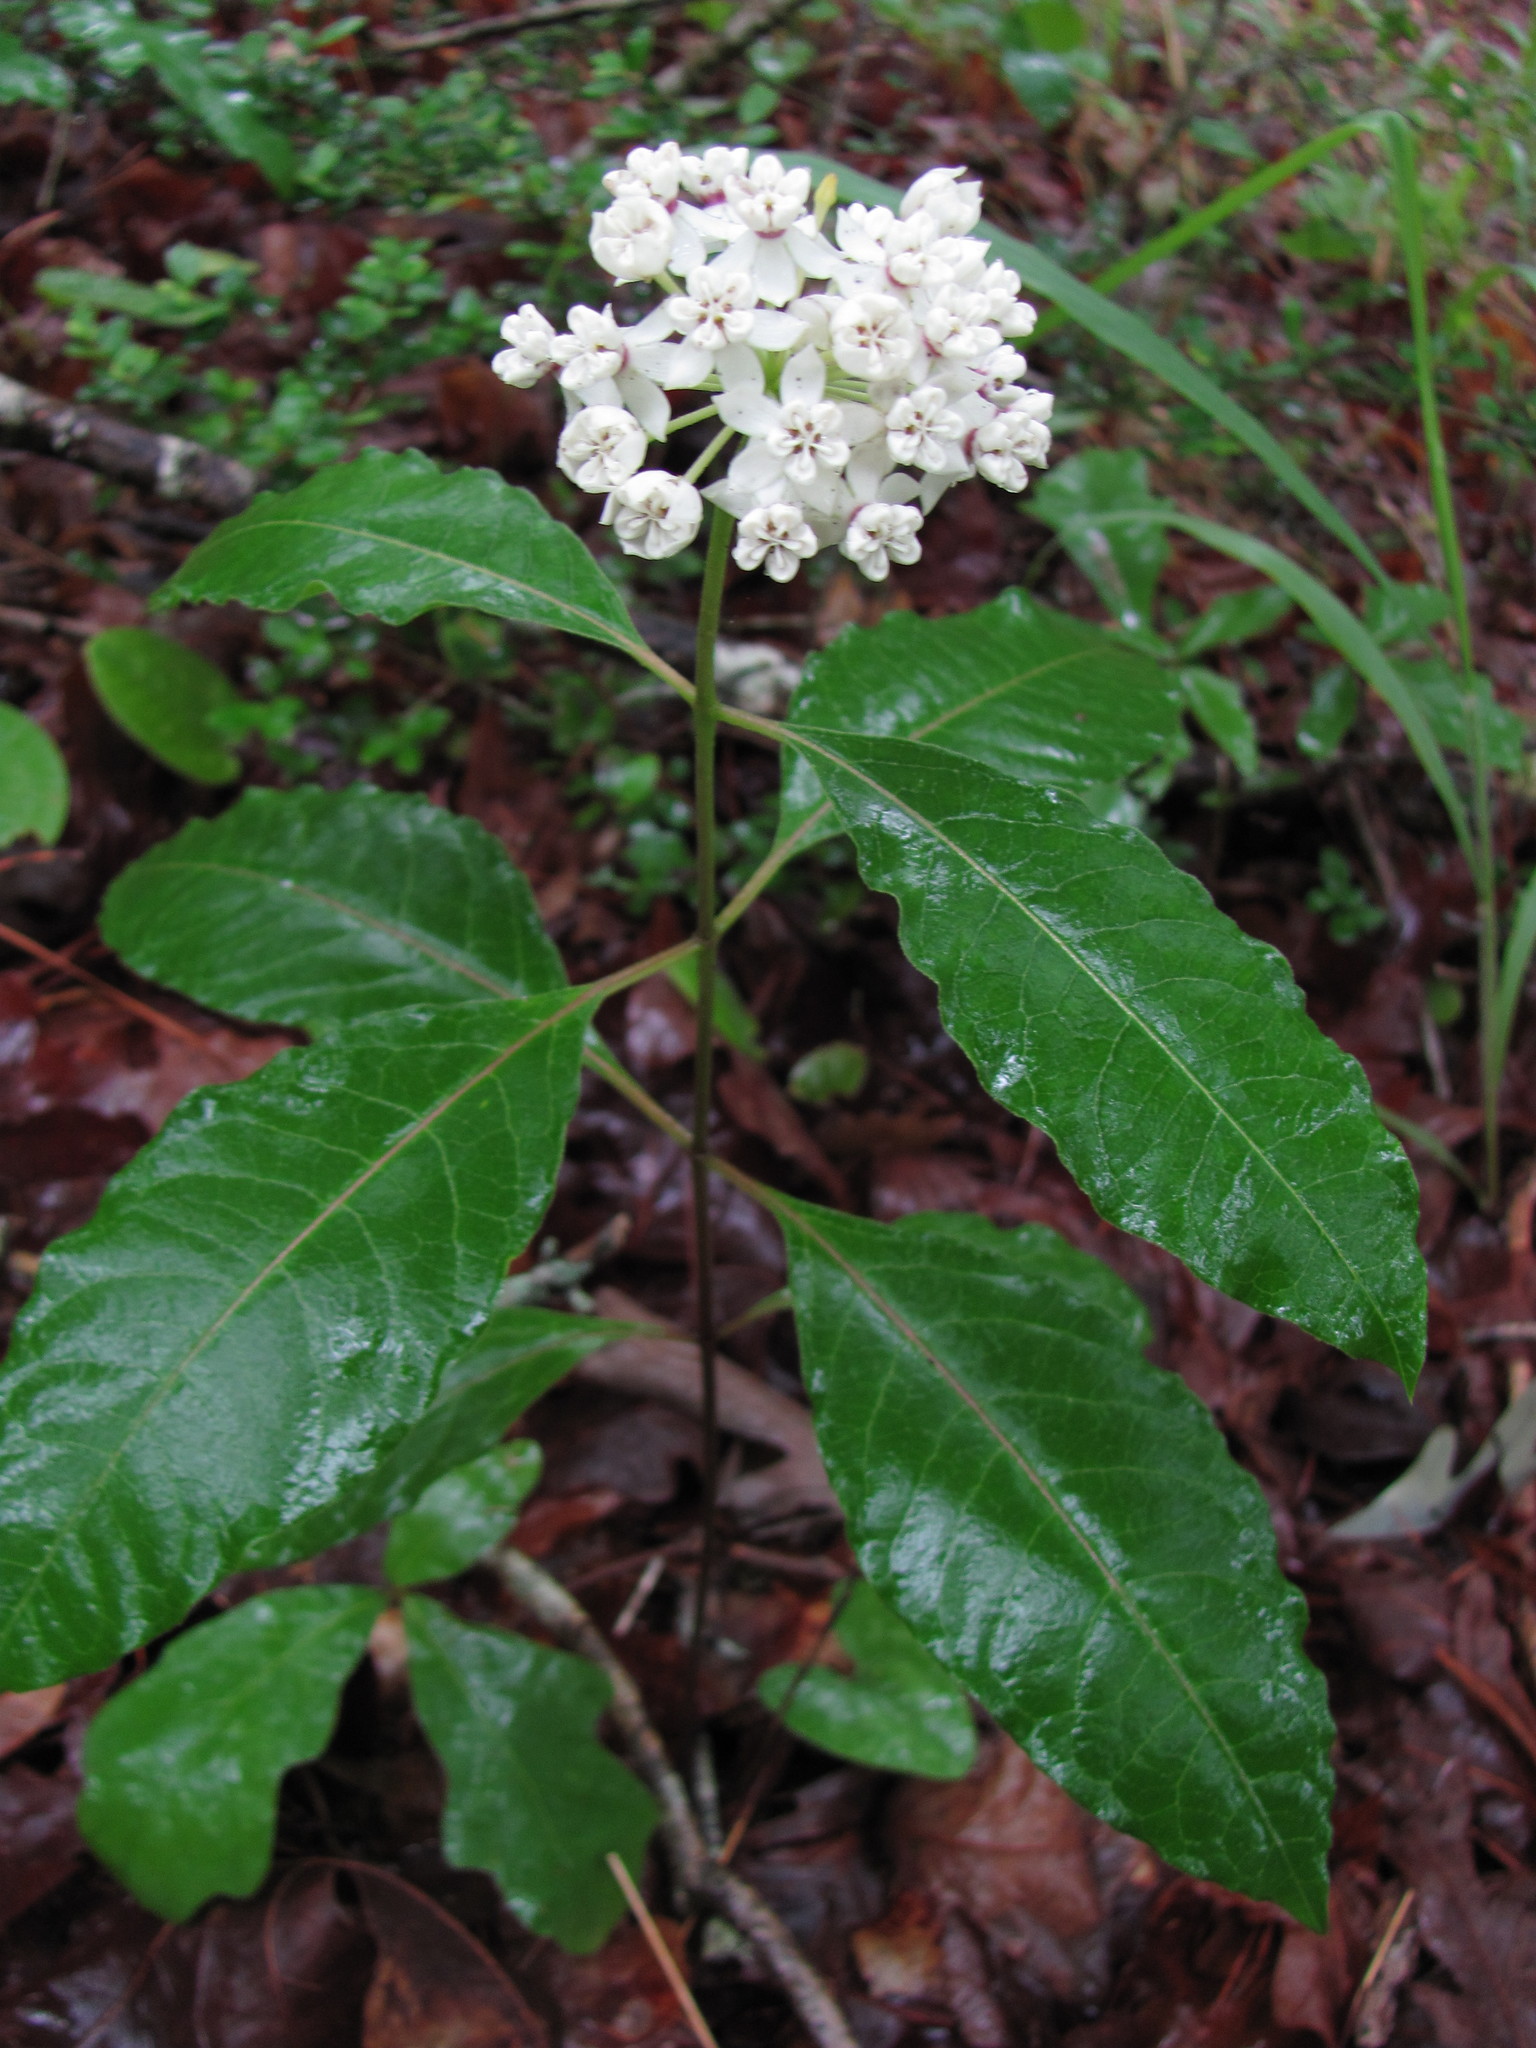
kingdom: Plantae
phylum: Tracheophyta
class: Magnoliopsida
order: Gentianales
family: Apocynaceae
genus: Asclepias
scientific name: Asclepias variegata
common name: Variegated milkweed
